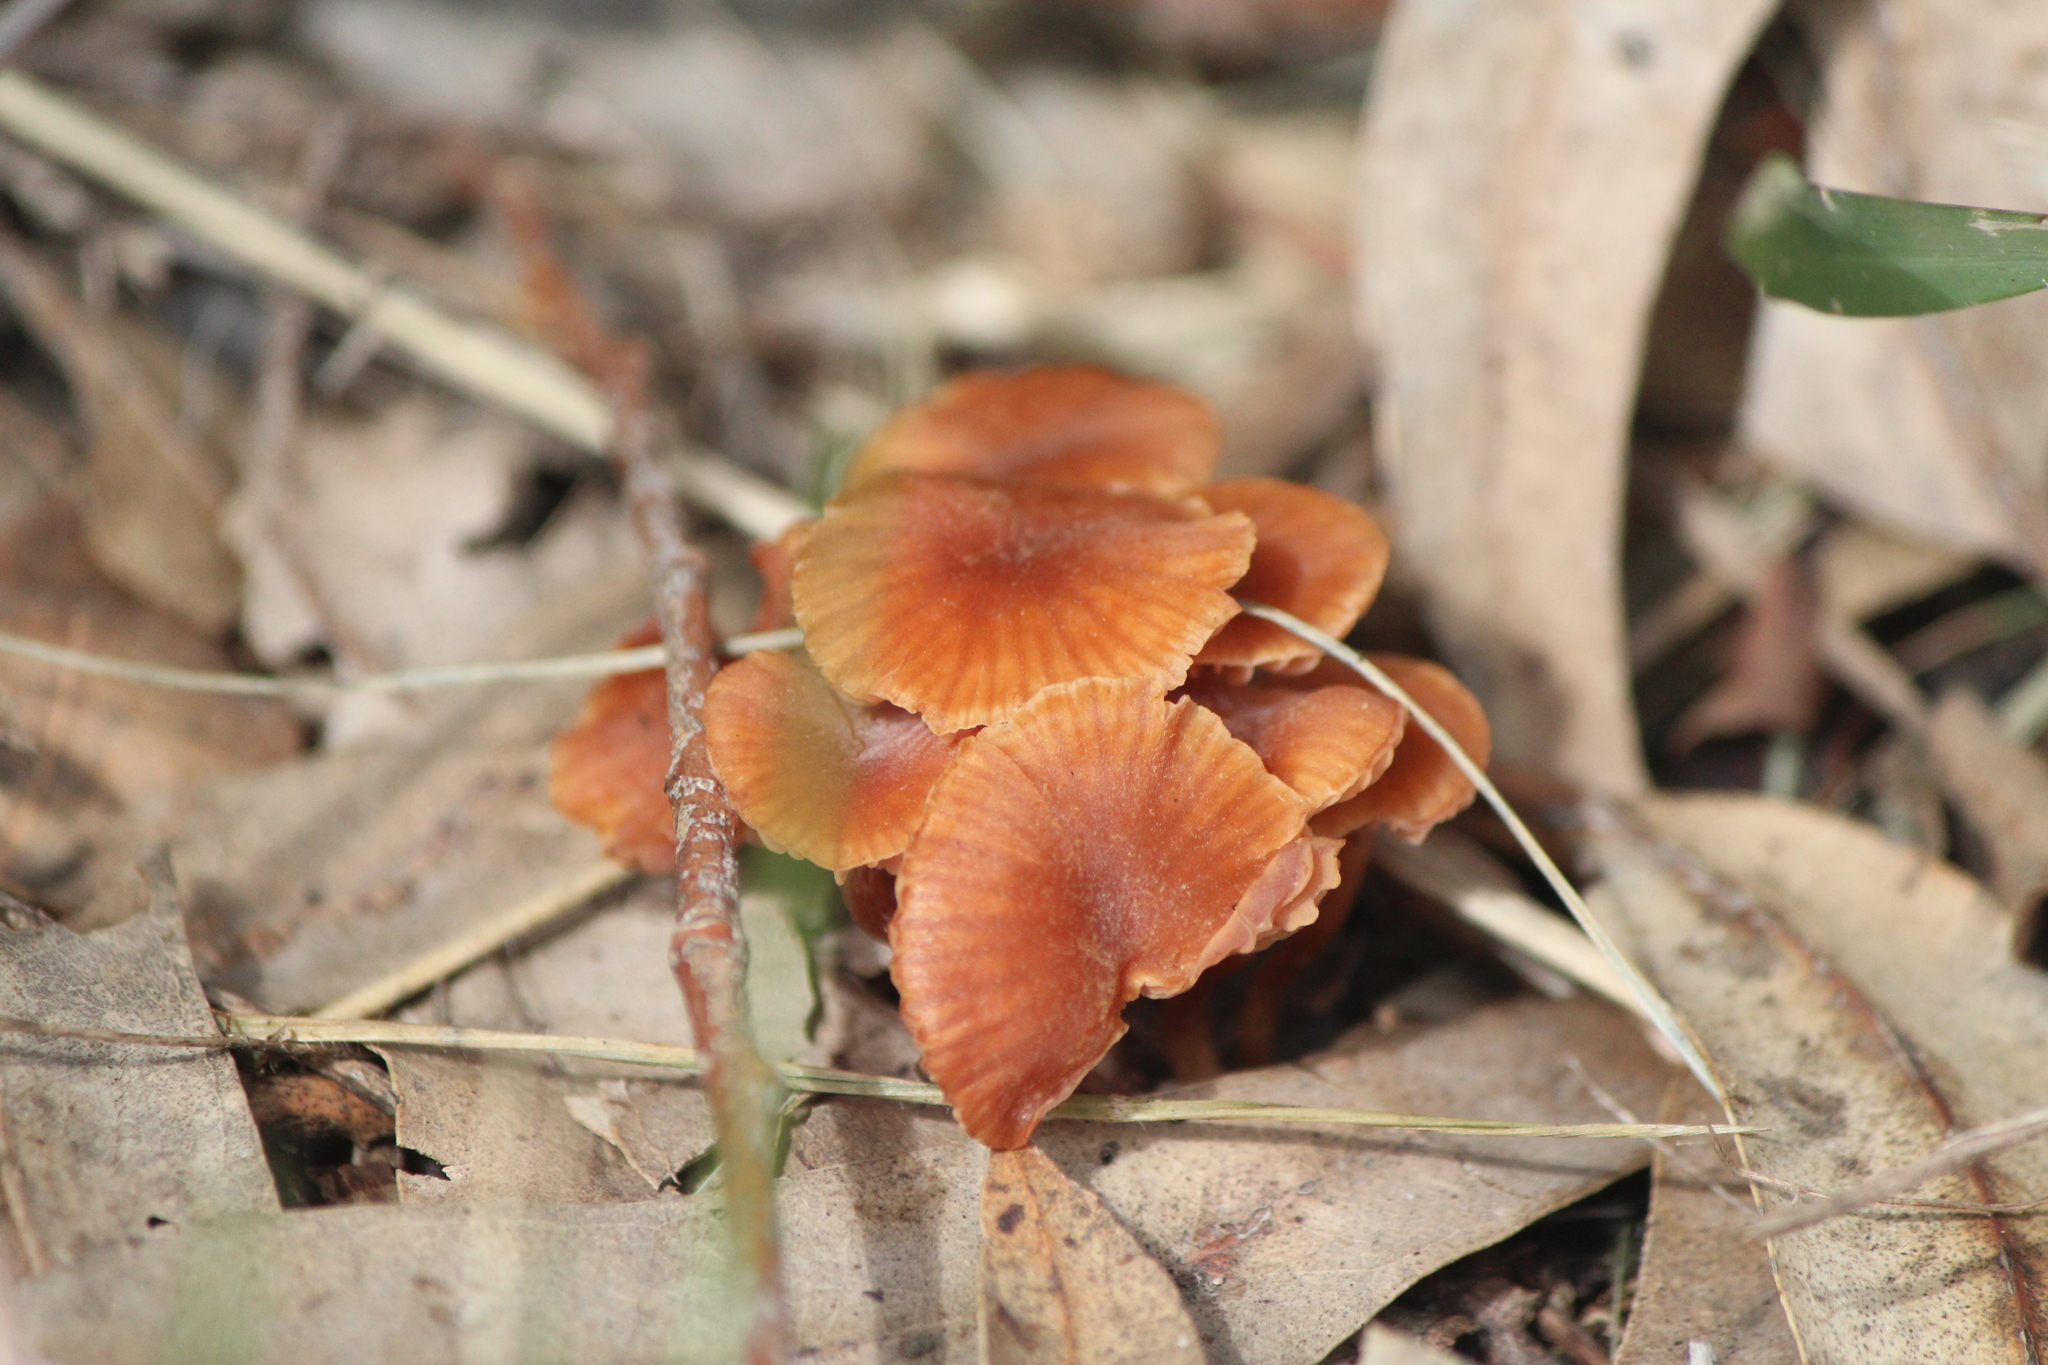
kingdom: Fungi
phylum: Basidiomycota
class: Agaricomycetes
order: Agaricales
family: Hydnangiaceae
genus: Laccaria
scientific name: Laccaria laccata
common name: Deceiver
